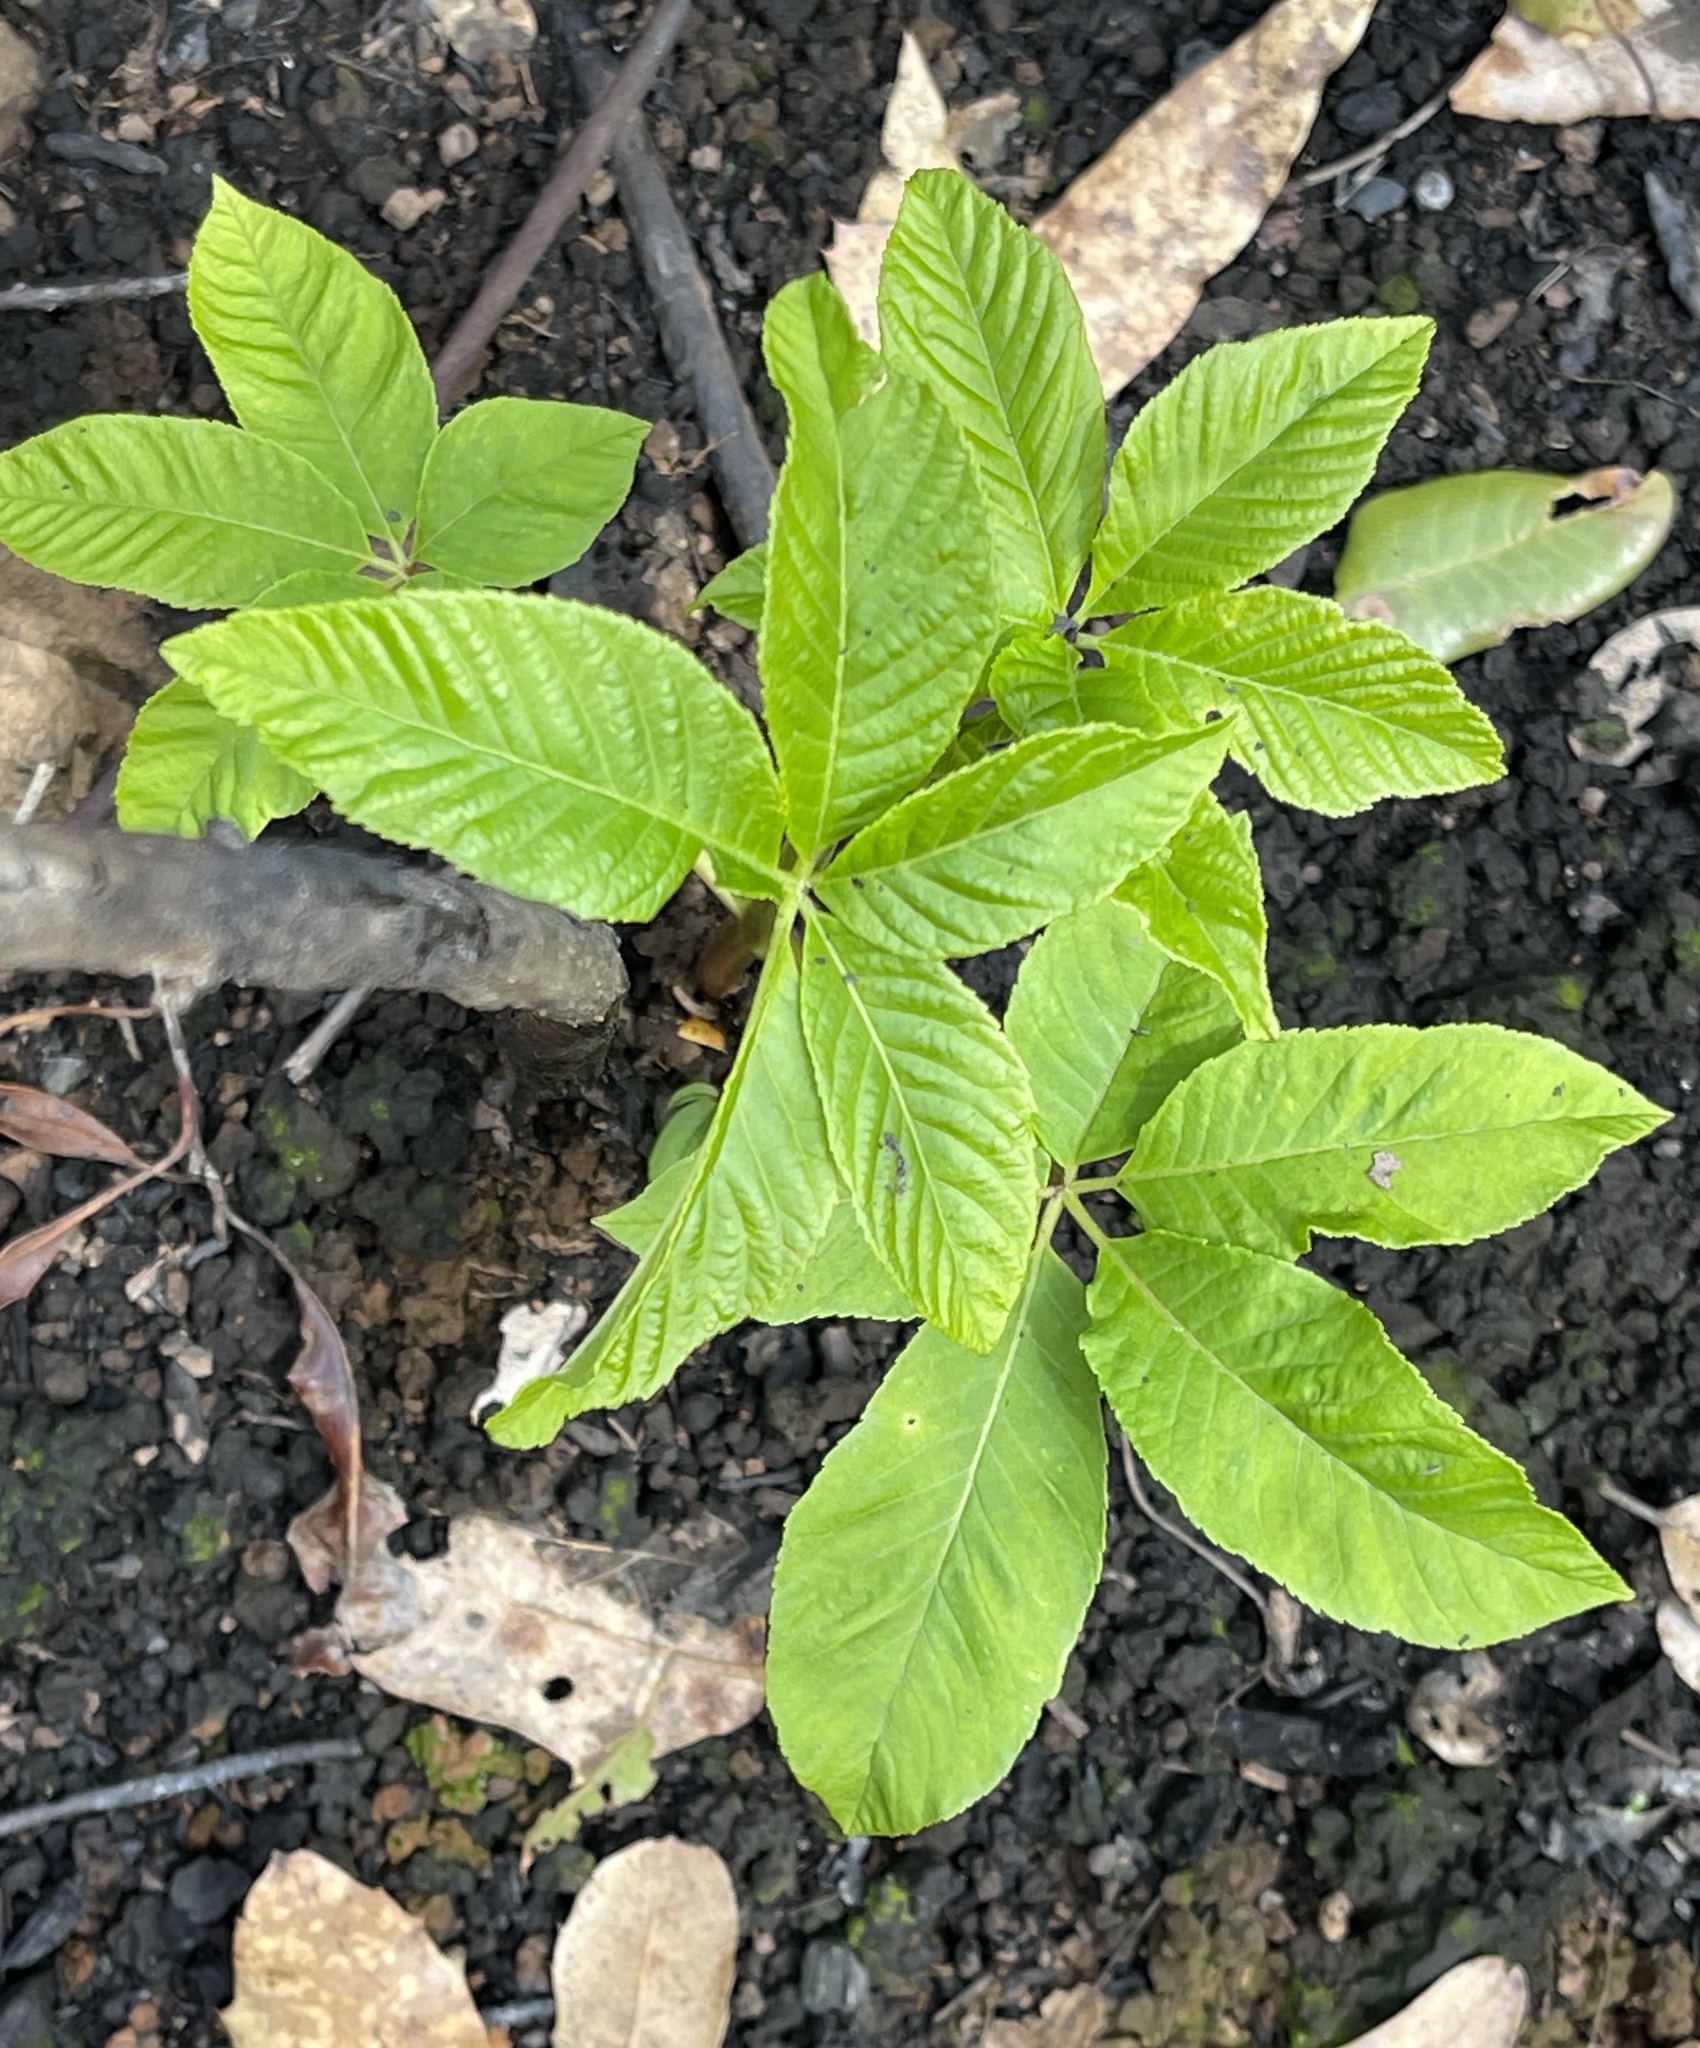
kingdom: Plantae
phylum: Tracheophyta
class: Magnoliopsida
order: Sapindales
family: Sapindaceae
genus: Aesculus
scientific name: Aesculus californica
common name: California buckeye
